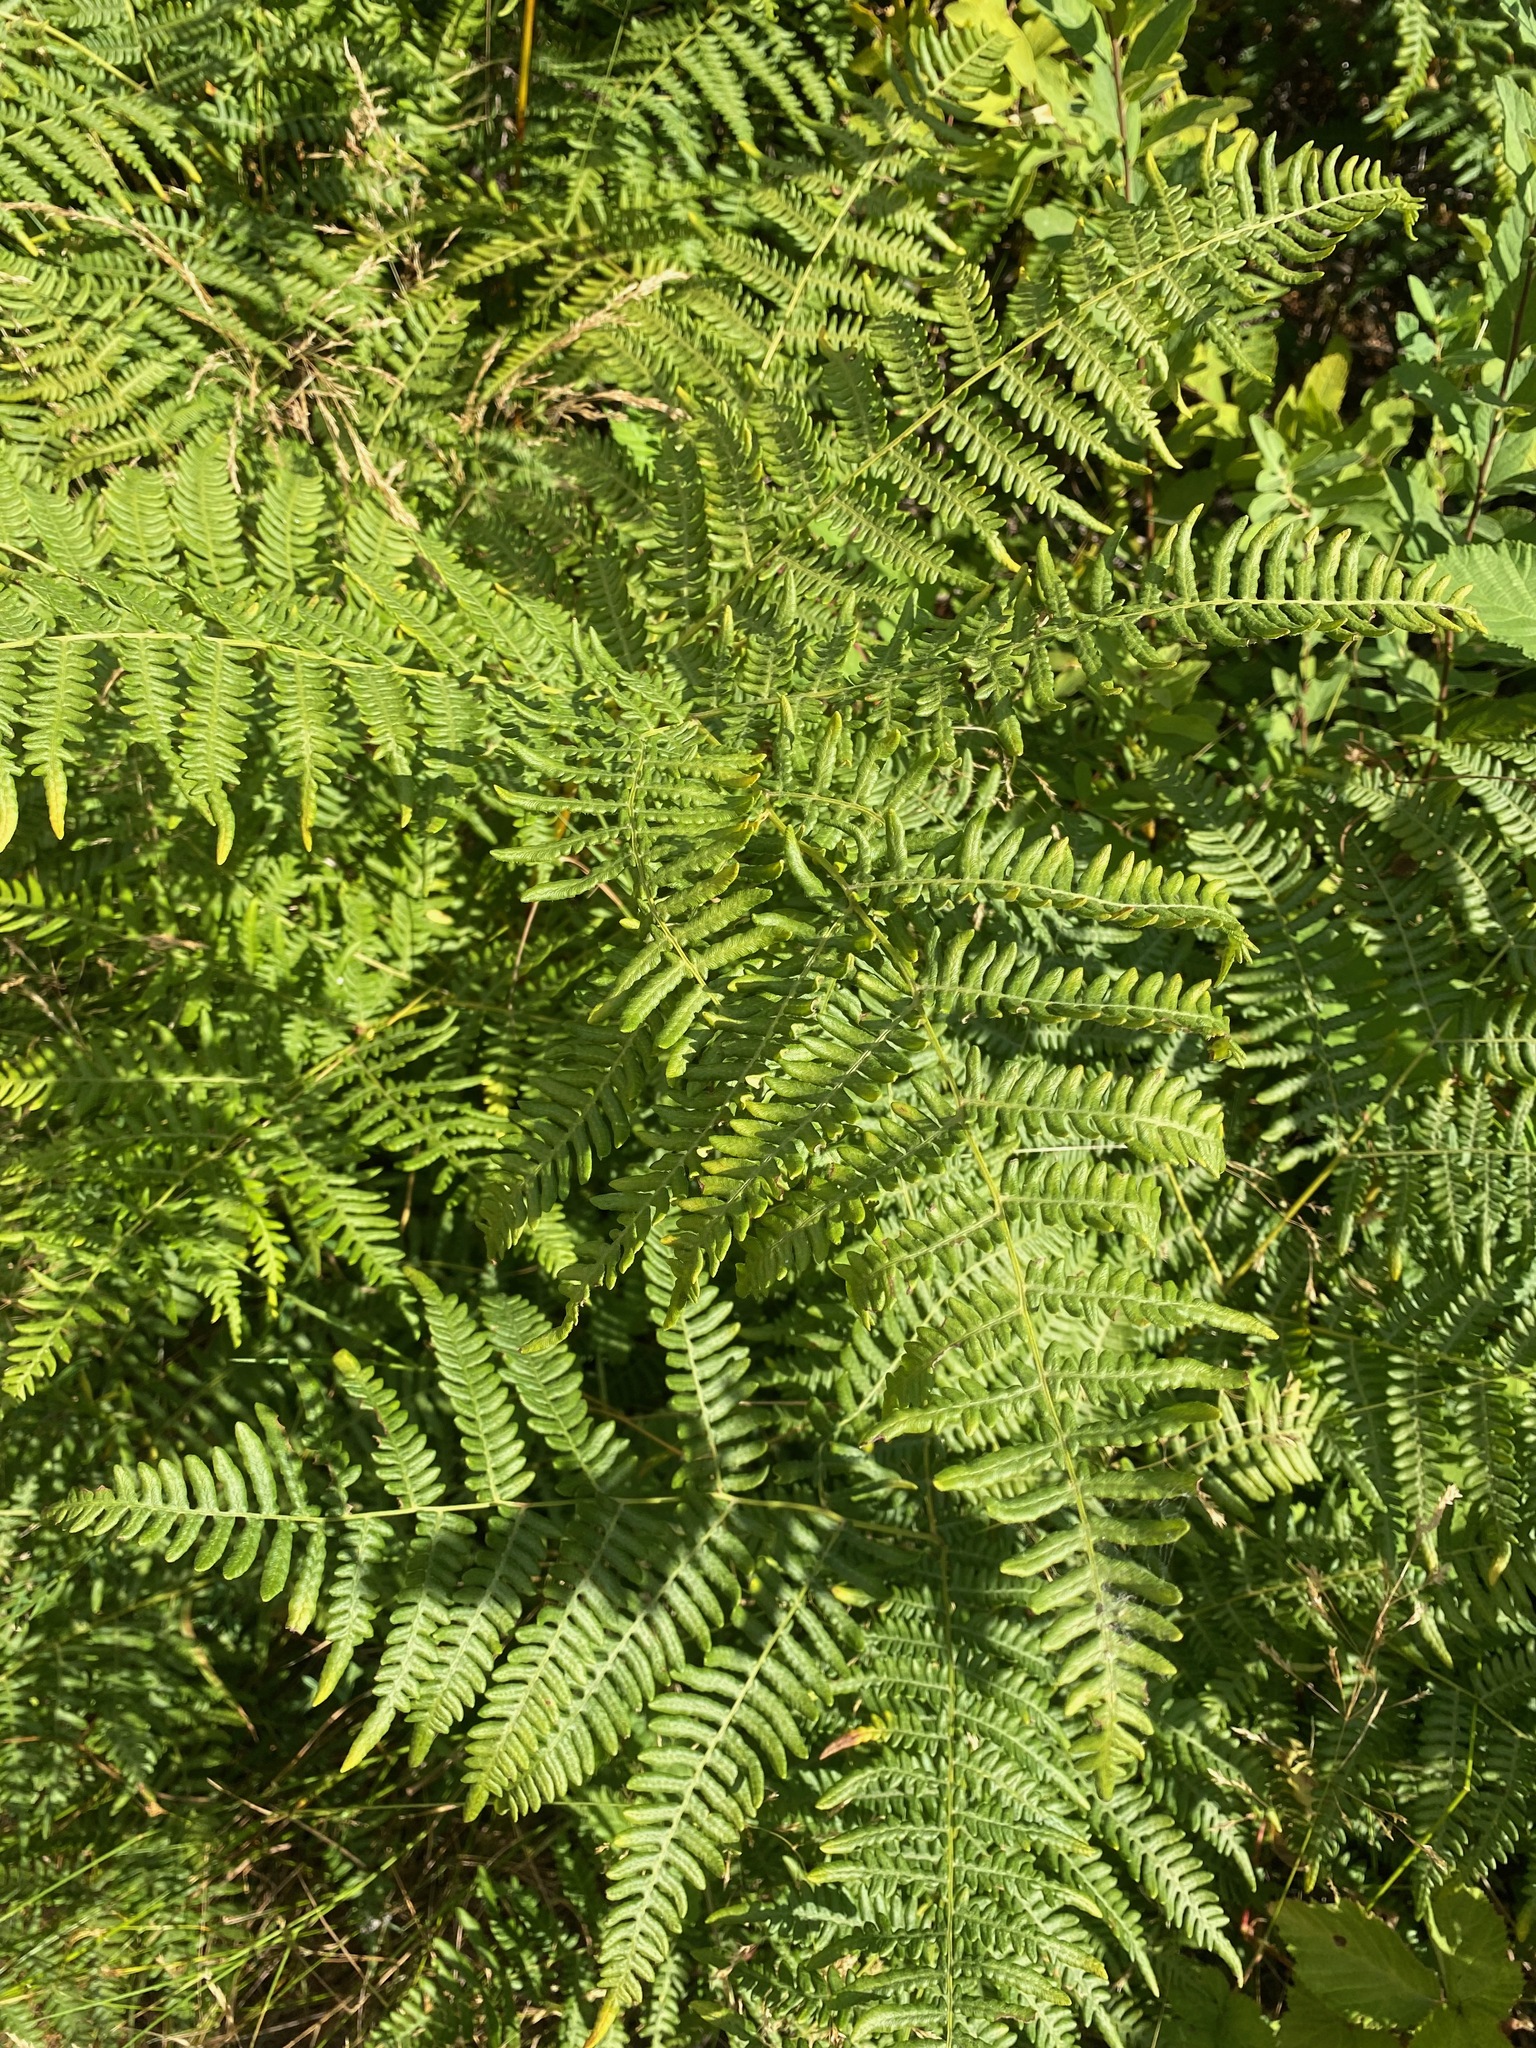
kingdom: Plantae
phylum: Tracheophyta
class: Polypodiopsida
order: Polypodiales
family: Dennstaedtiaceae
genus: Pteridium
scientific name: Pteridium aquilinum
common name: Bracken
